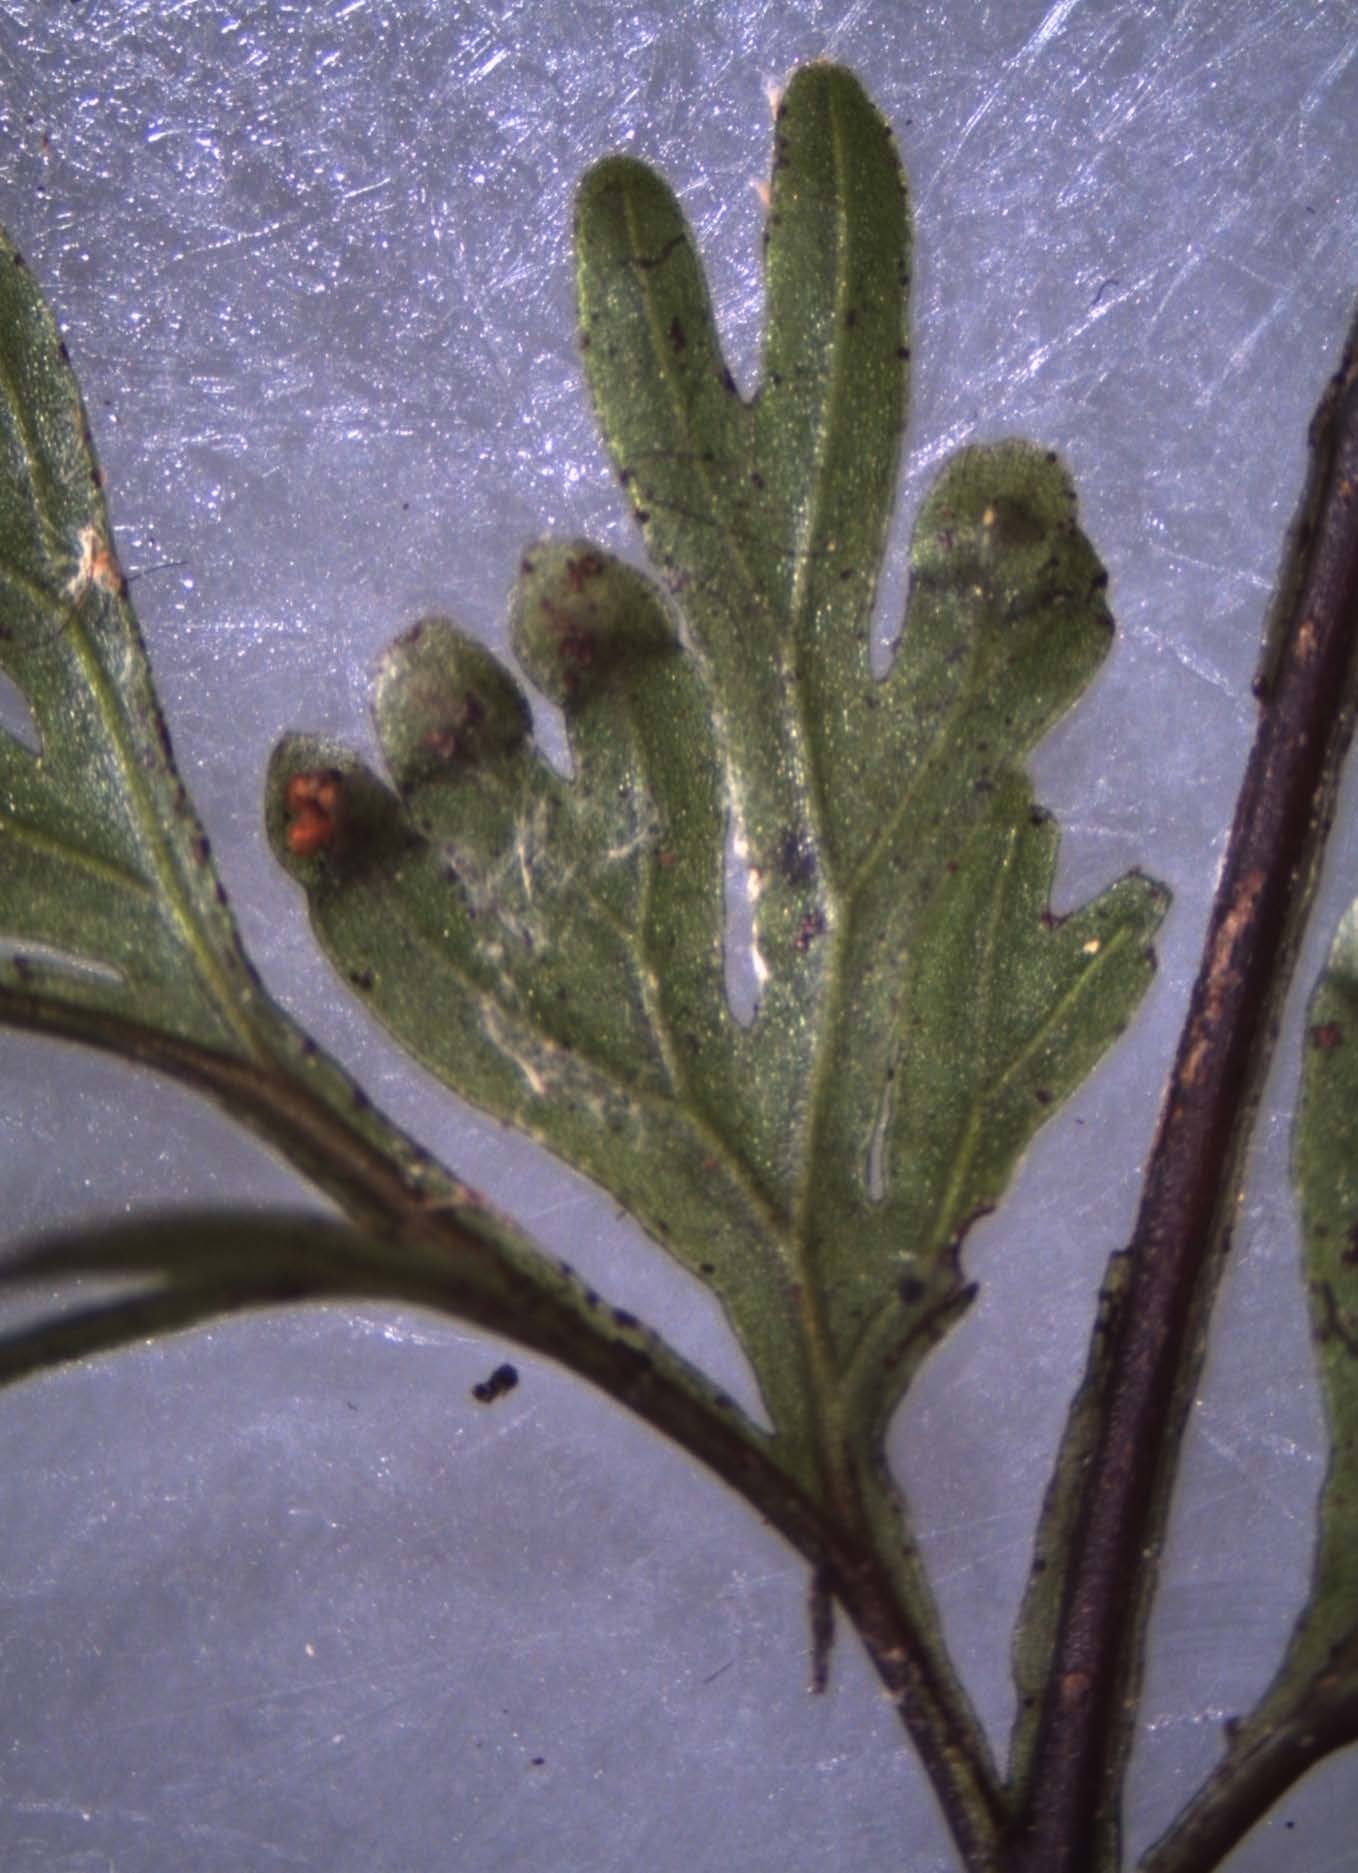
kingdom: Plantae
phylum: Tracheophyta
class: Polypodiopsida
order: Hymenophyllales
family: Hymenophyllaceae
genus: Hymenophyllum
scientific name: Hymenophyllum demissum
